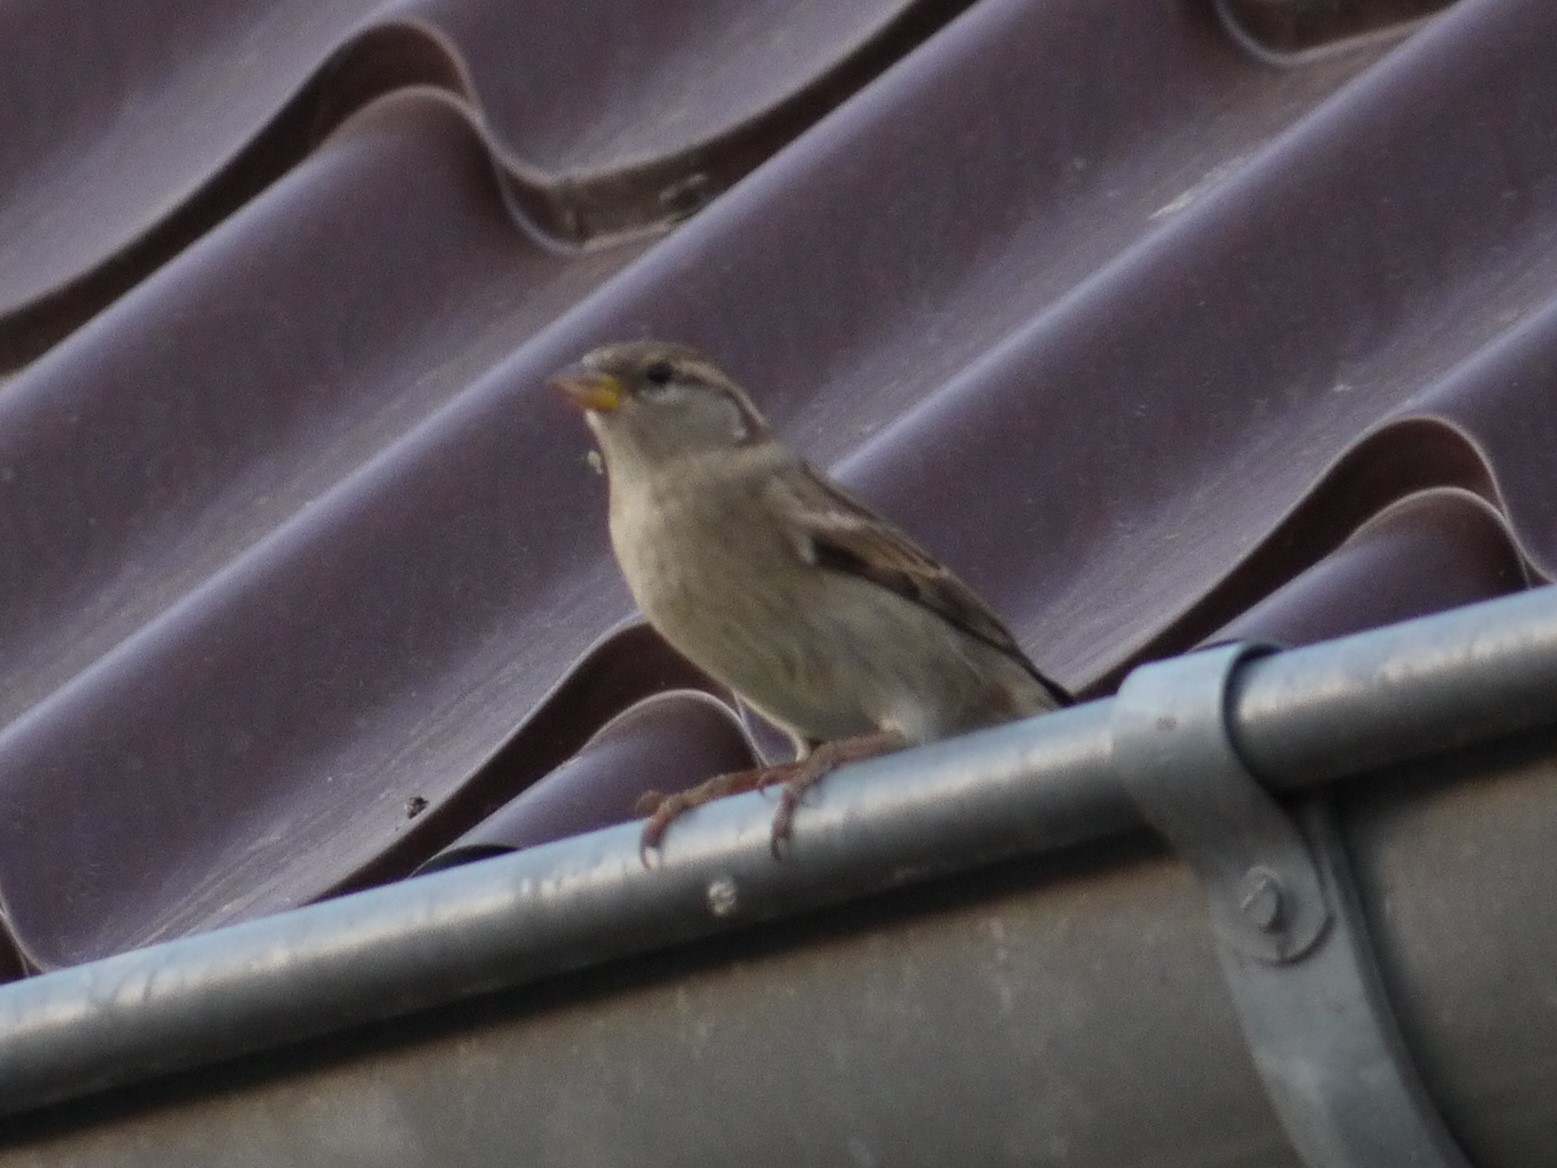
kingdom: Animalia
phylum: Chordata
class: Aves
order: Passeriformes
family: Passeridae
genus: Passer
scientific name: Passer domesticus
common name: House sparrow
